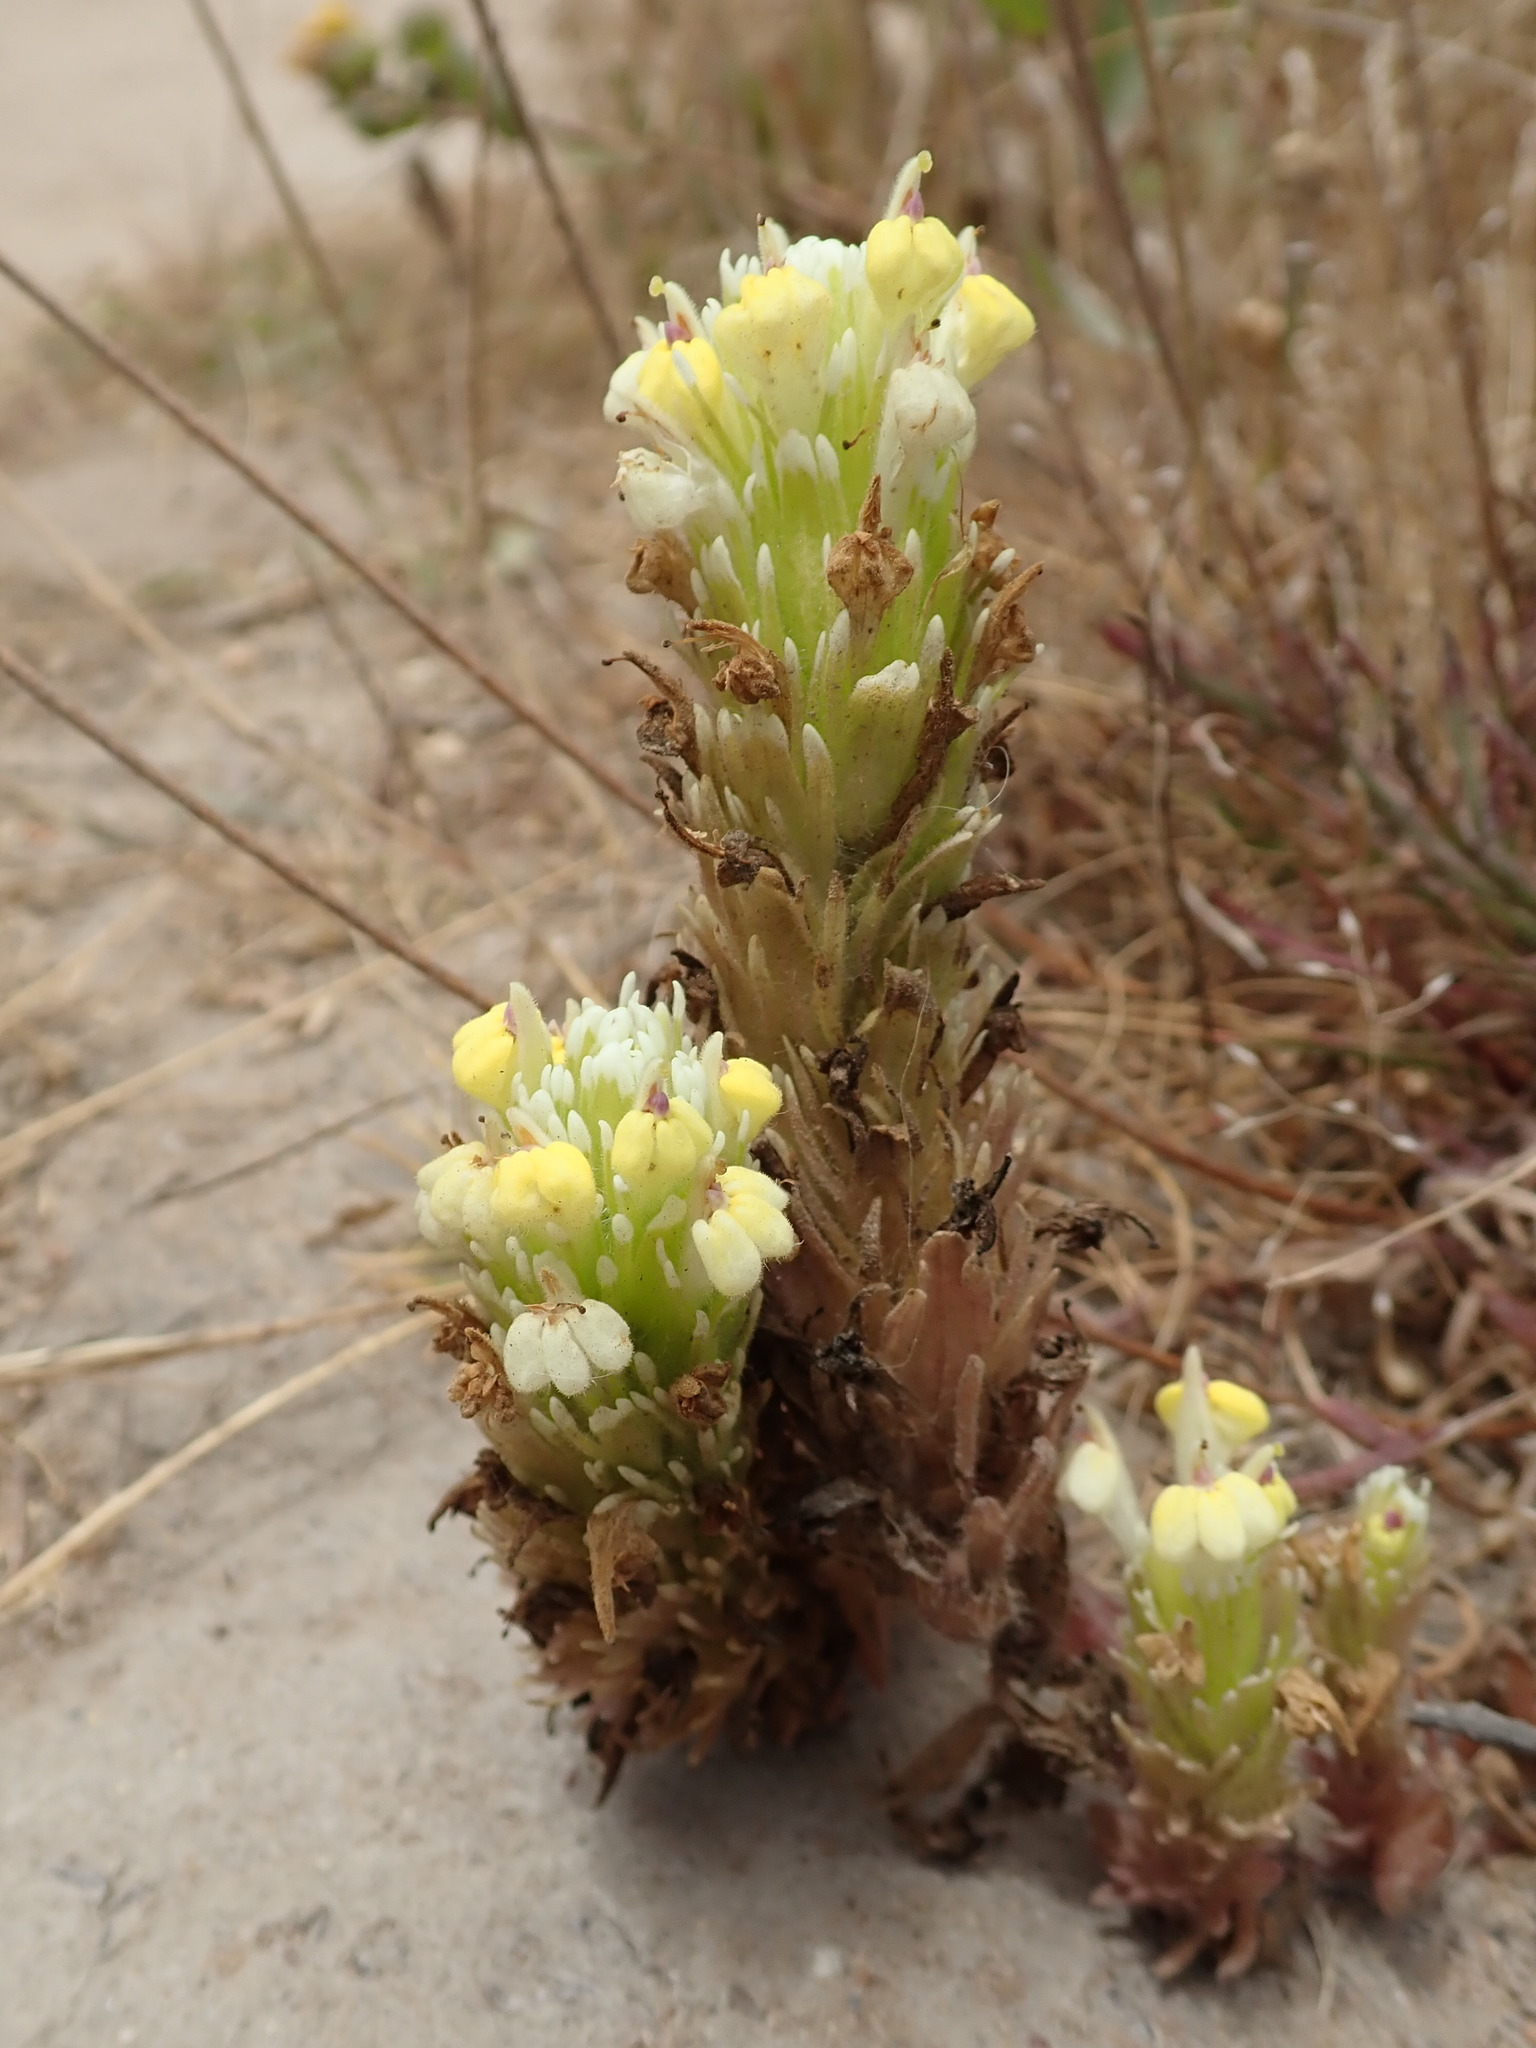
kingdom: Plantae
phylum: Tracheophyta
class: Magnoliopsida
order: Lamiales
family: Orobanchaceae
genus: Castilleja
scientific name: Castilleja ambigua
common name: Johnny-nip
